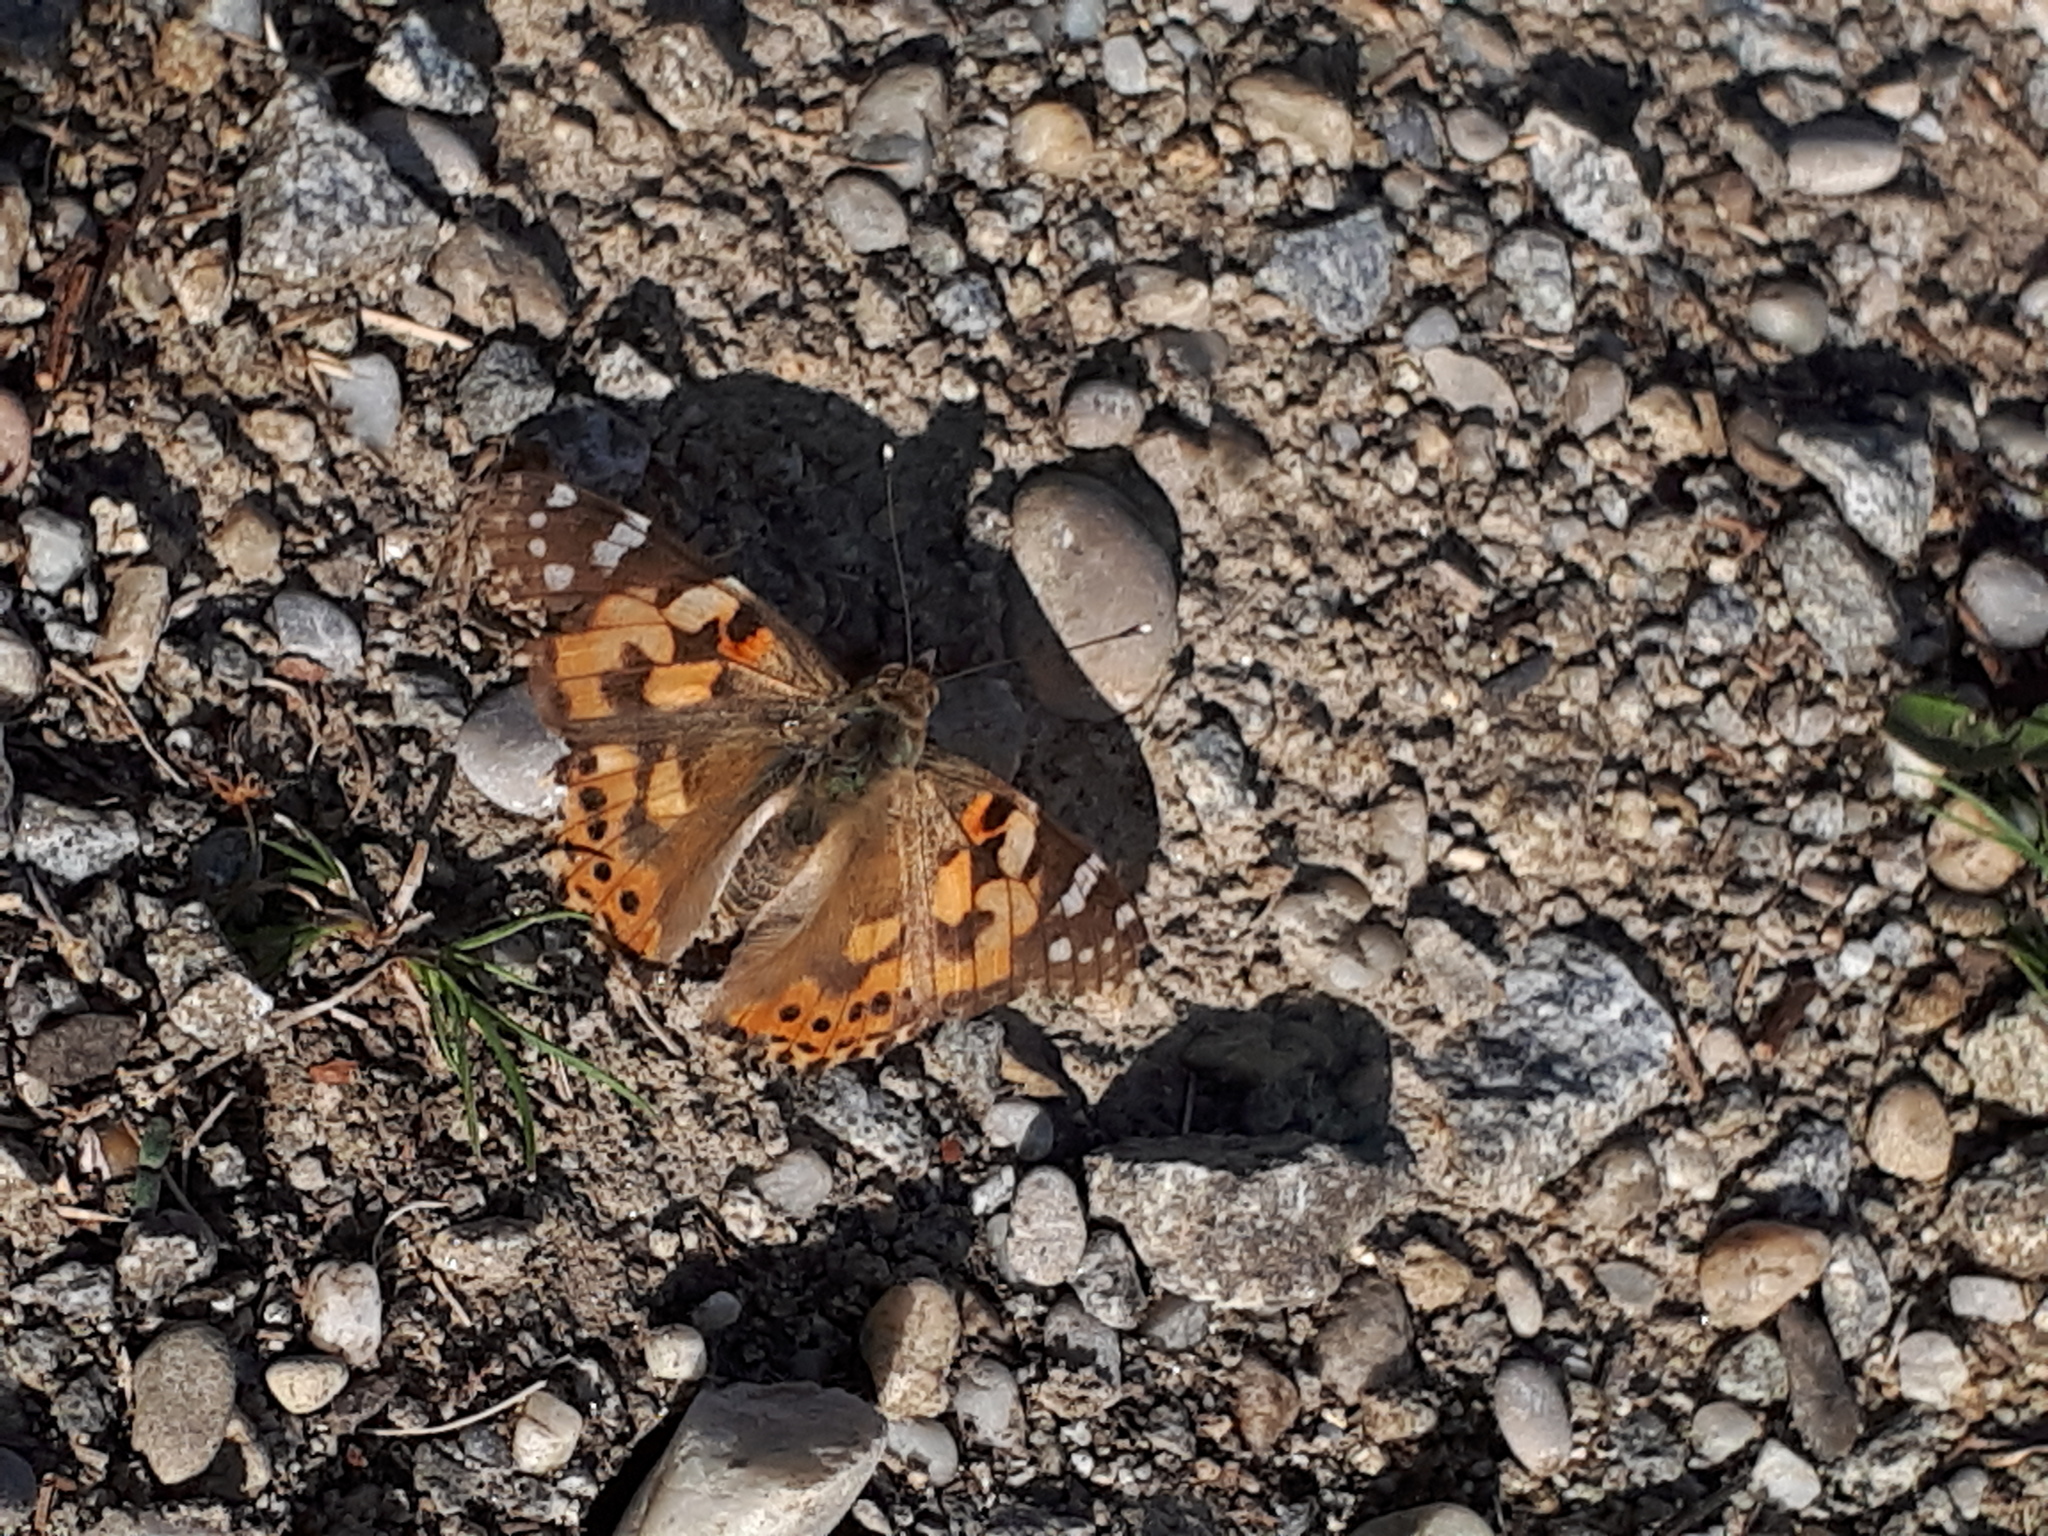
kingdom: Animalia
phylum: Arthropoda
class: Insecta
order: Lepidoptera
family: Nymphalidae
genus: Vanessa
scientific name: Vanessa cardui
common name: Painted lady
